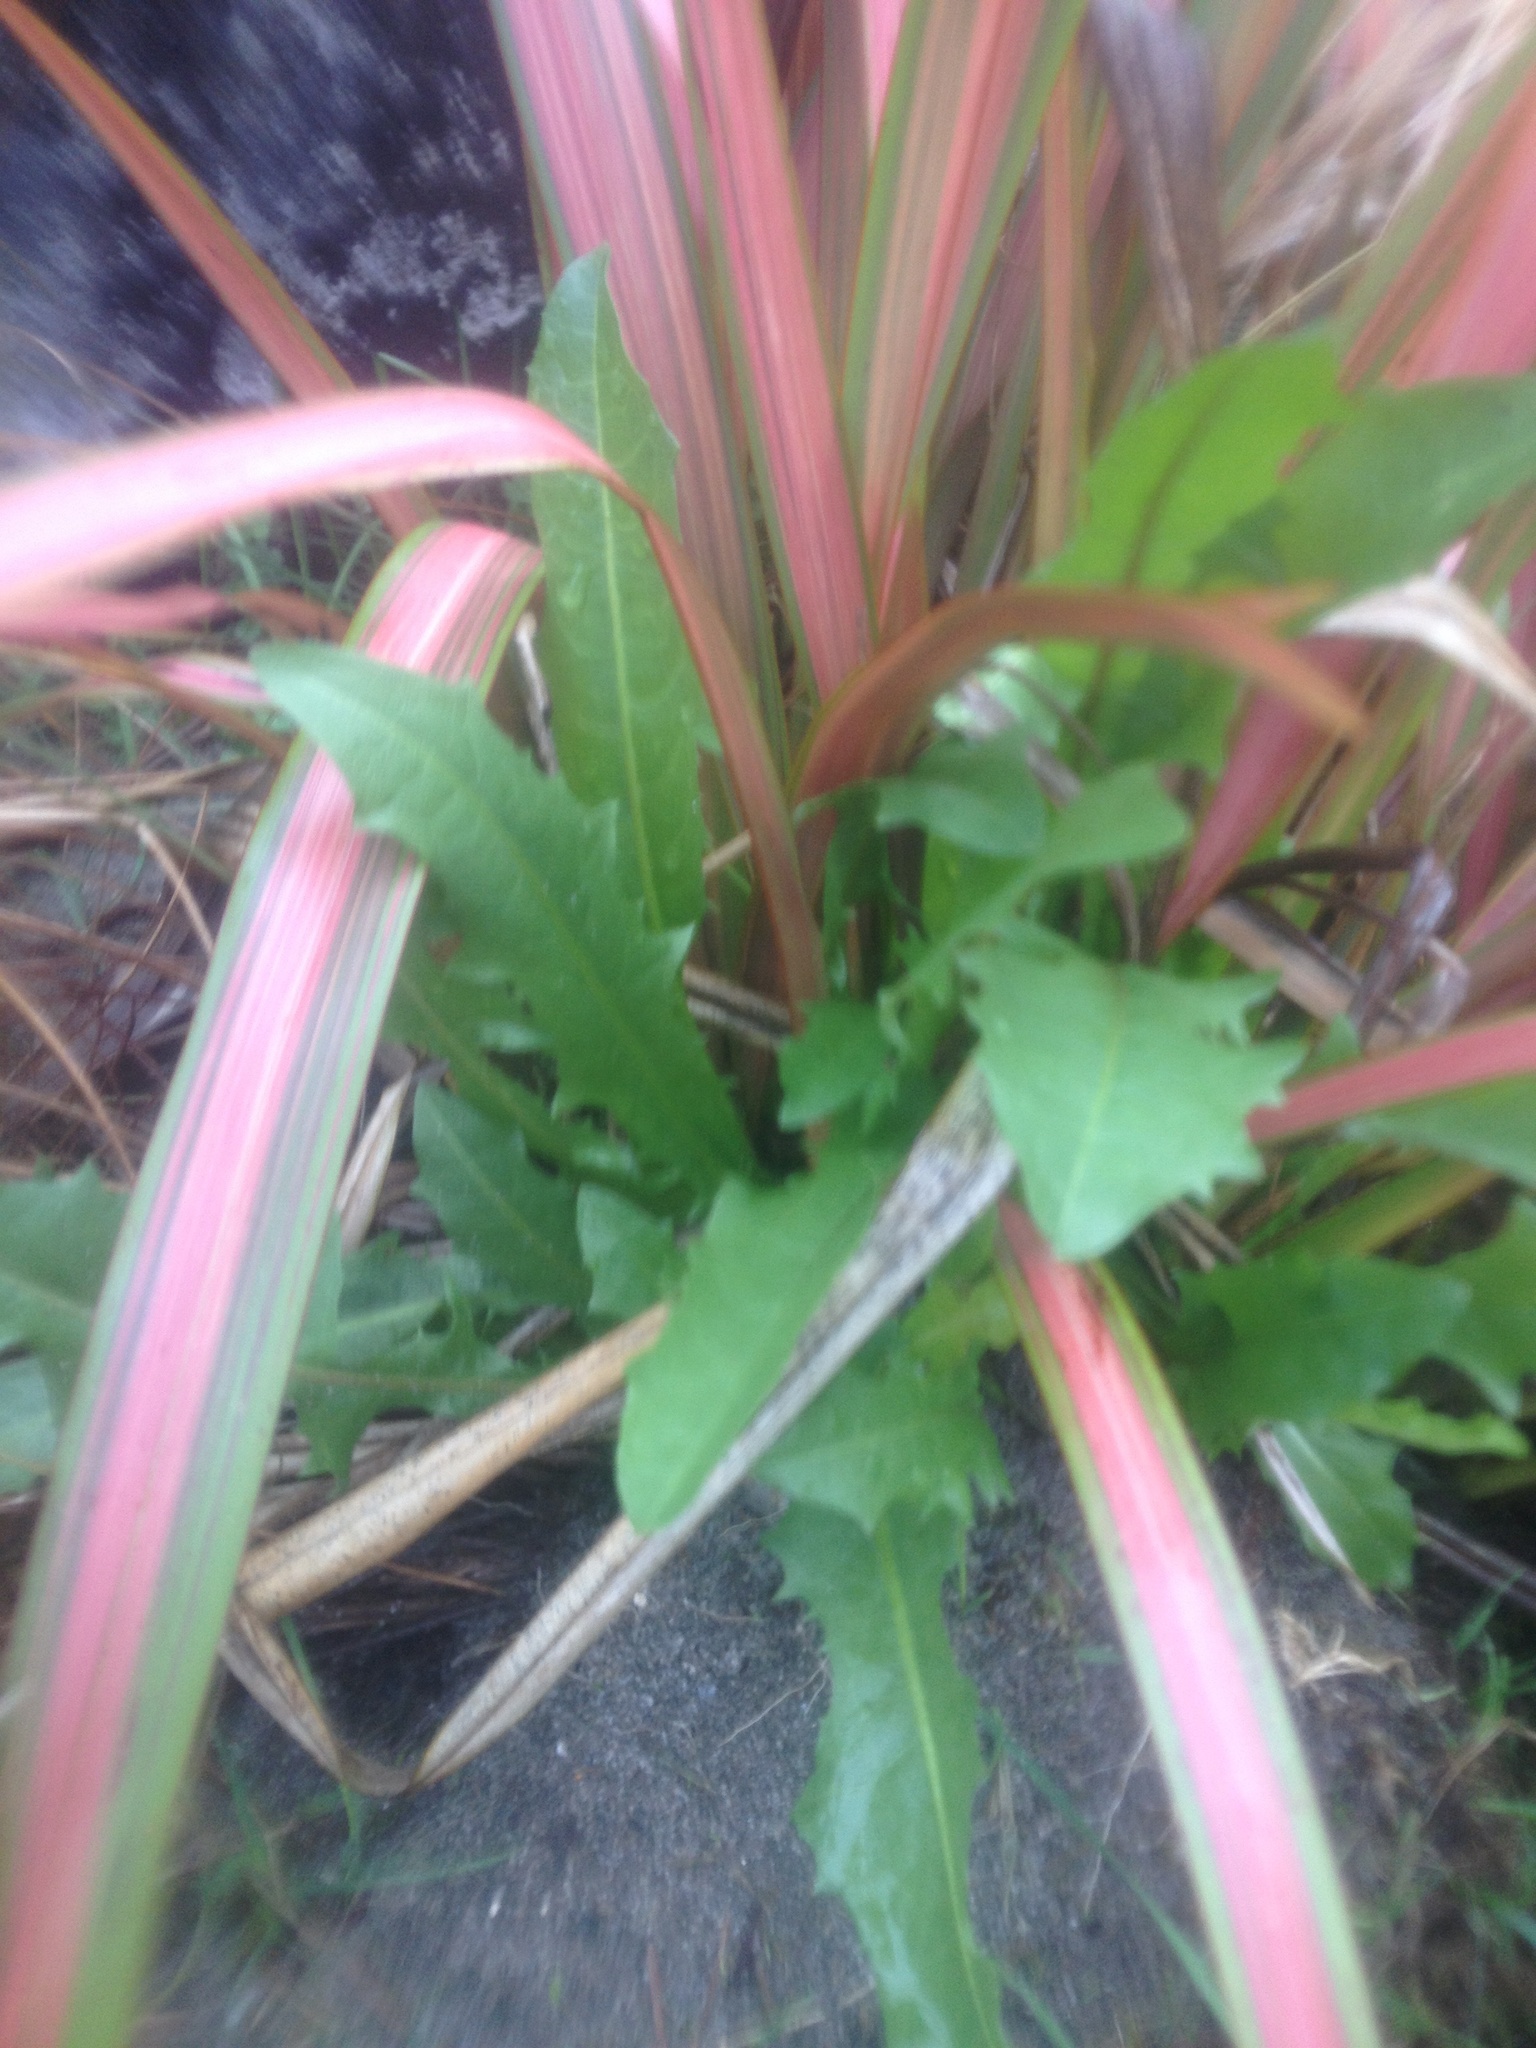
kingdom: Plantae
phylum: Tracheophyta
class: Magnoliopsida
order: Asterales
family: Asteraceae
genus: Taraxacum
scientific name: Taraxacum officinale
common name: Common dandelion
